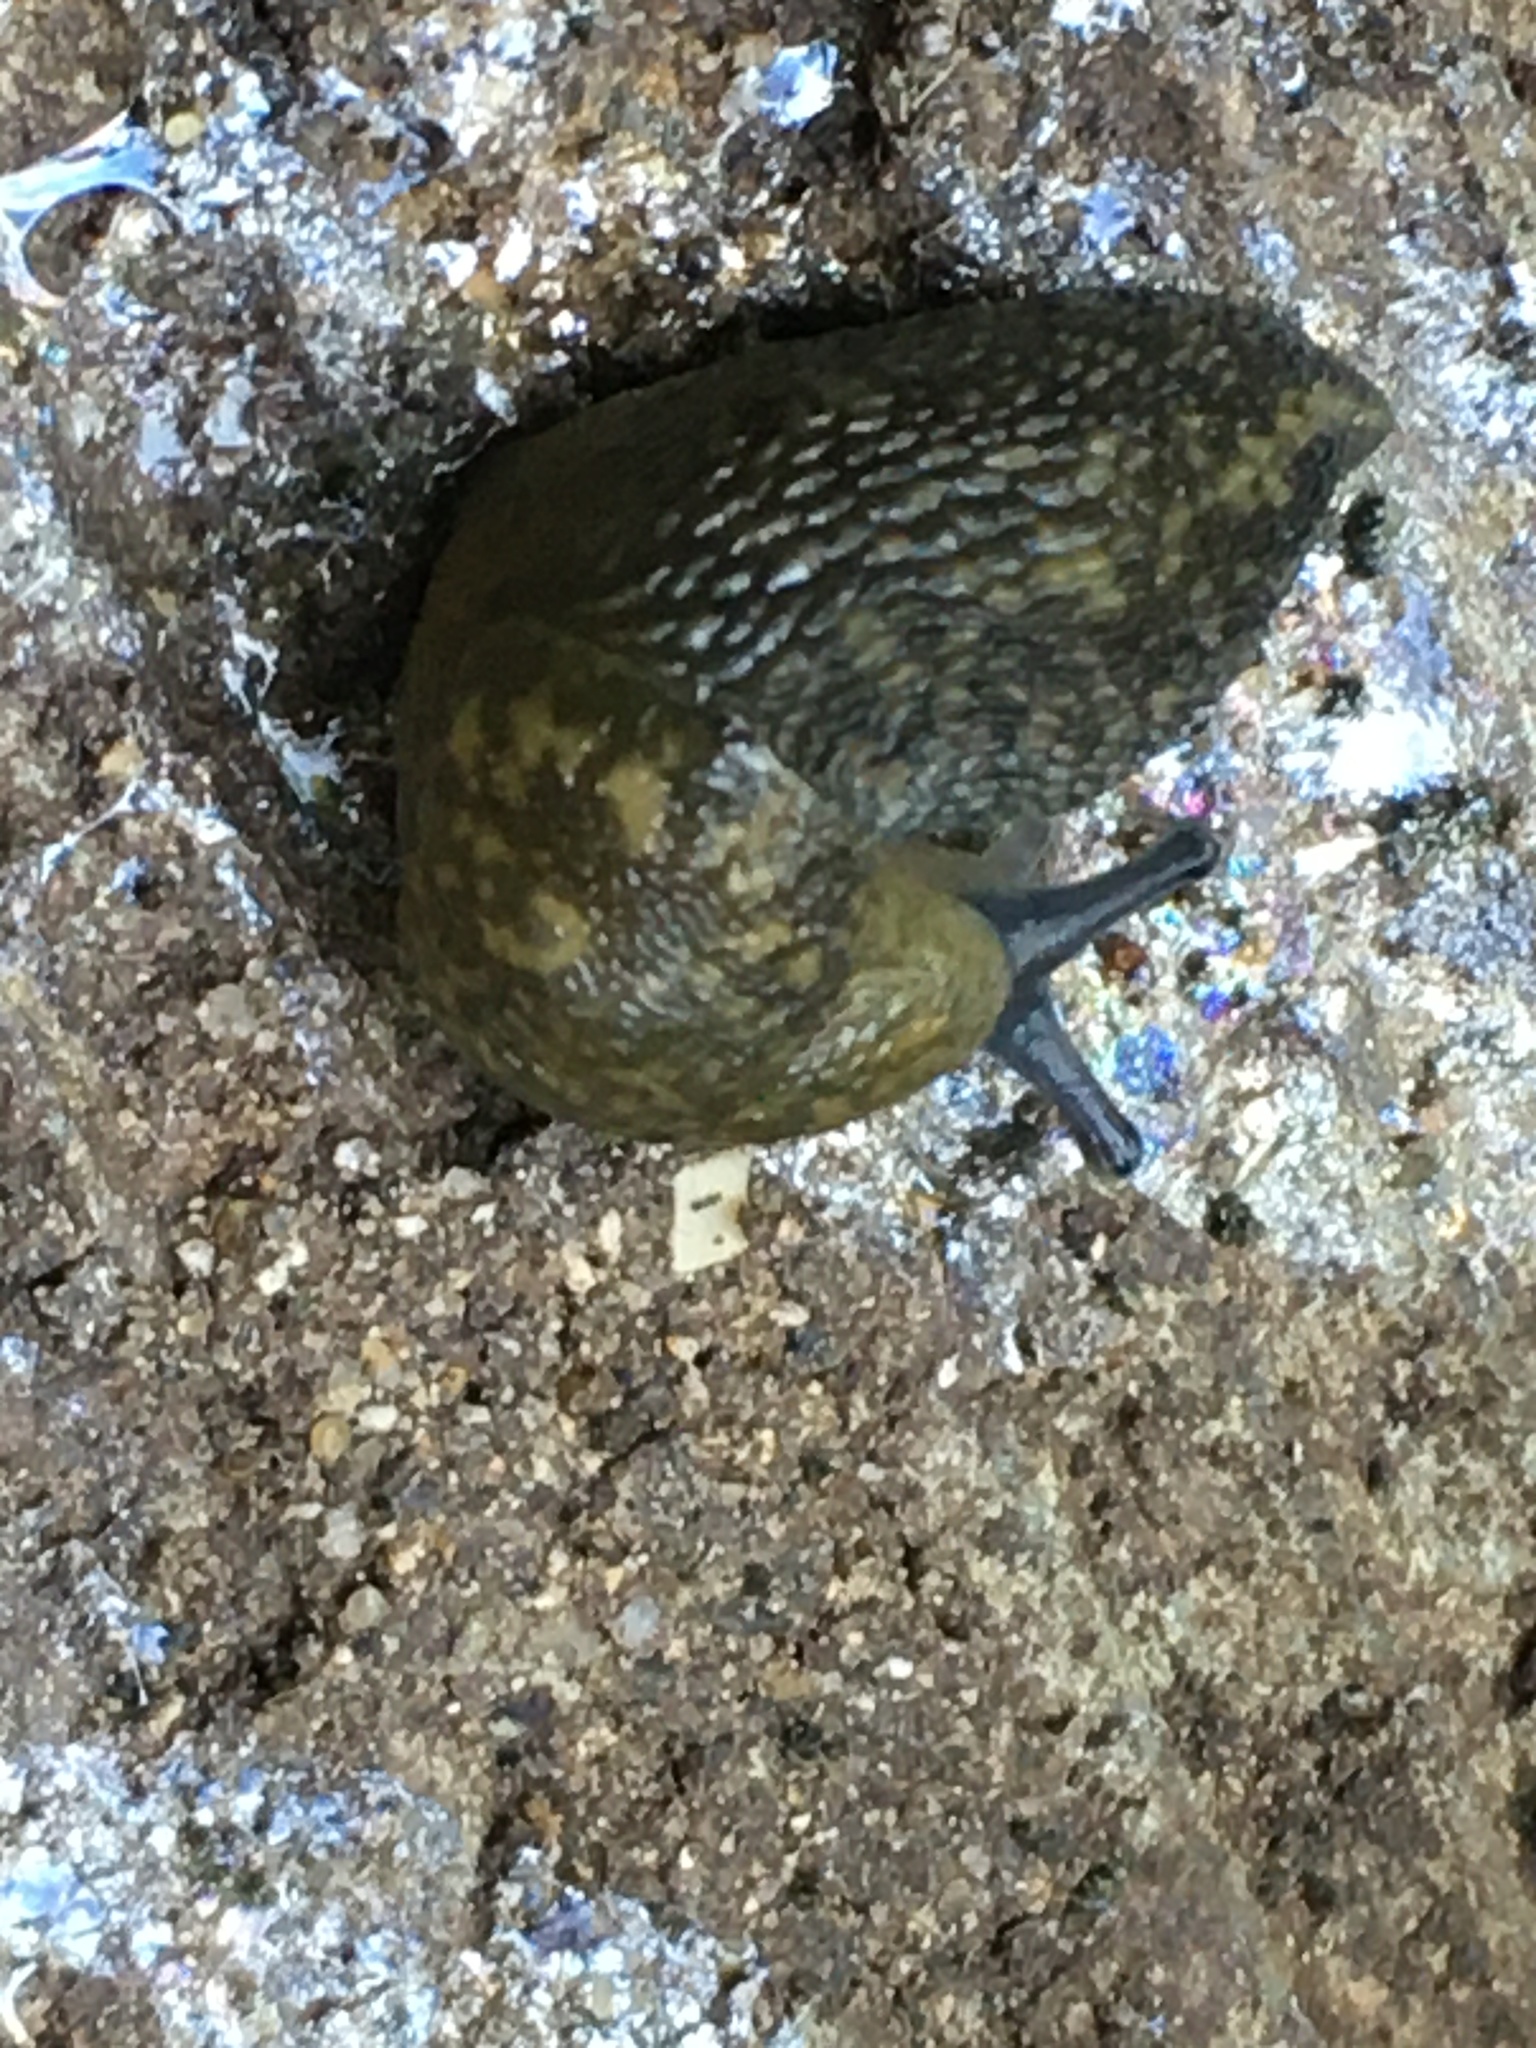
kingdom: Animalia
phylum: Mollusca
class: Gastropoda
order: Stylommatophora
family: Limacidae
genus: Limacus
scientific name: Limacus flavus
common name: Yellow gardenslug
